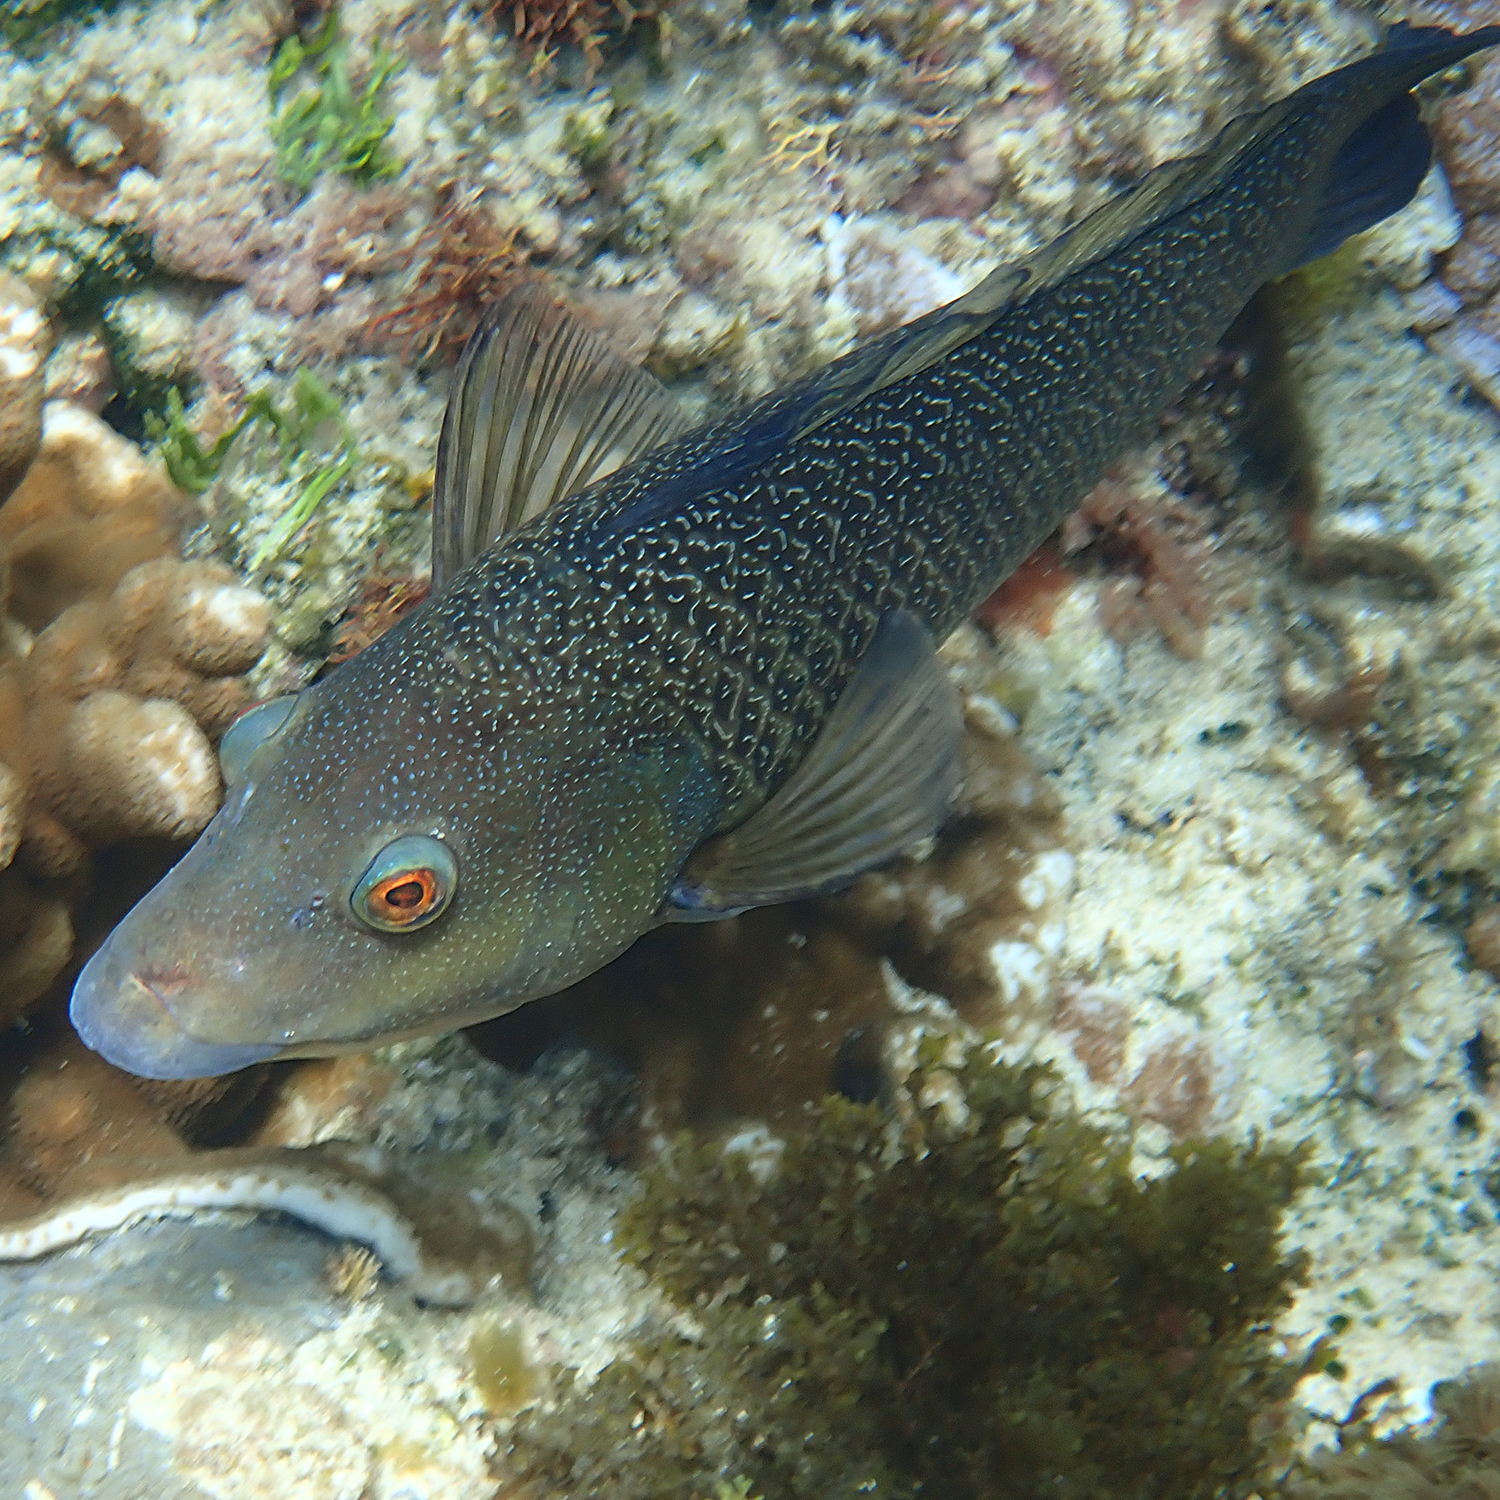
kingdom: Animalia
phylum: Chordata
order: Perciformes
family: Labridae
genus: Notolabrus
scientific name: Notolabrus inscriptus
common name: Green wrasse
